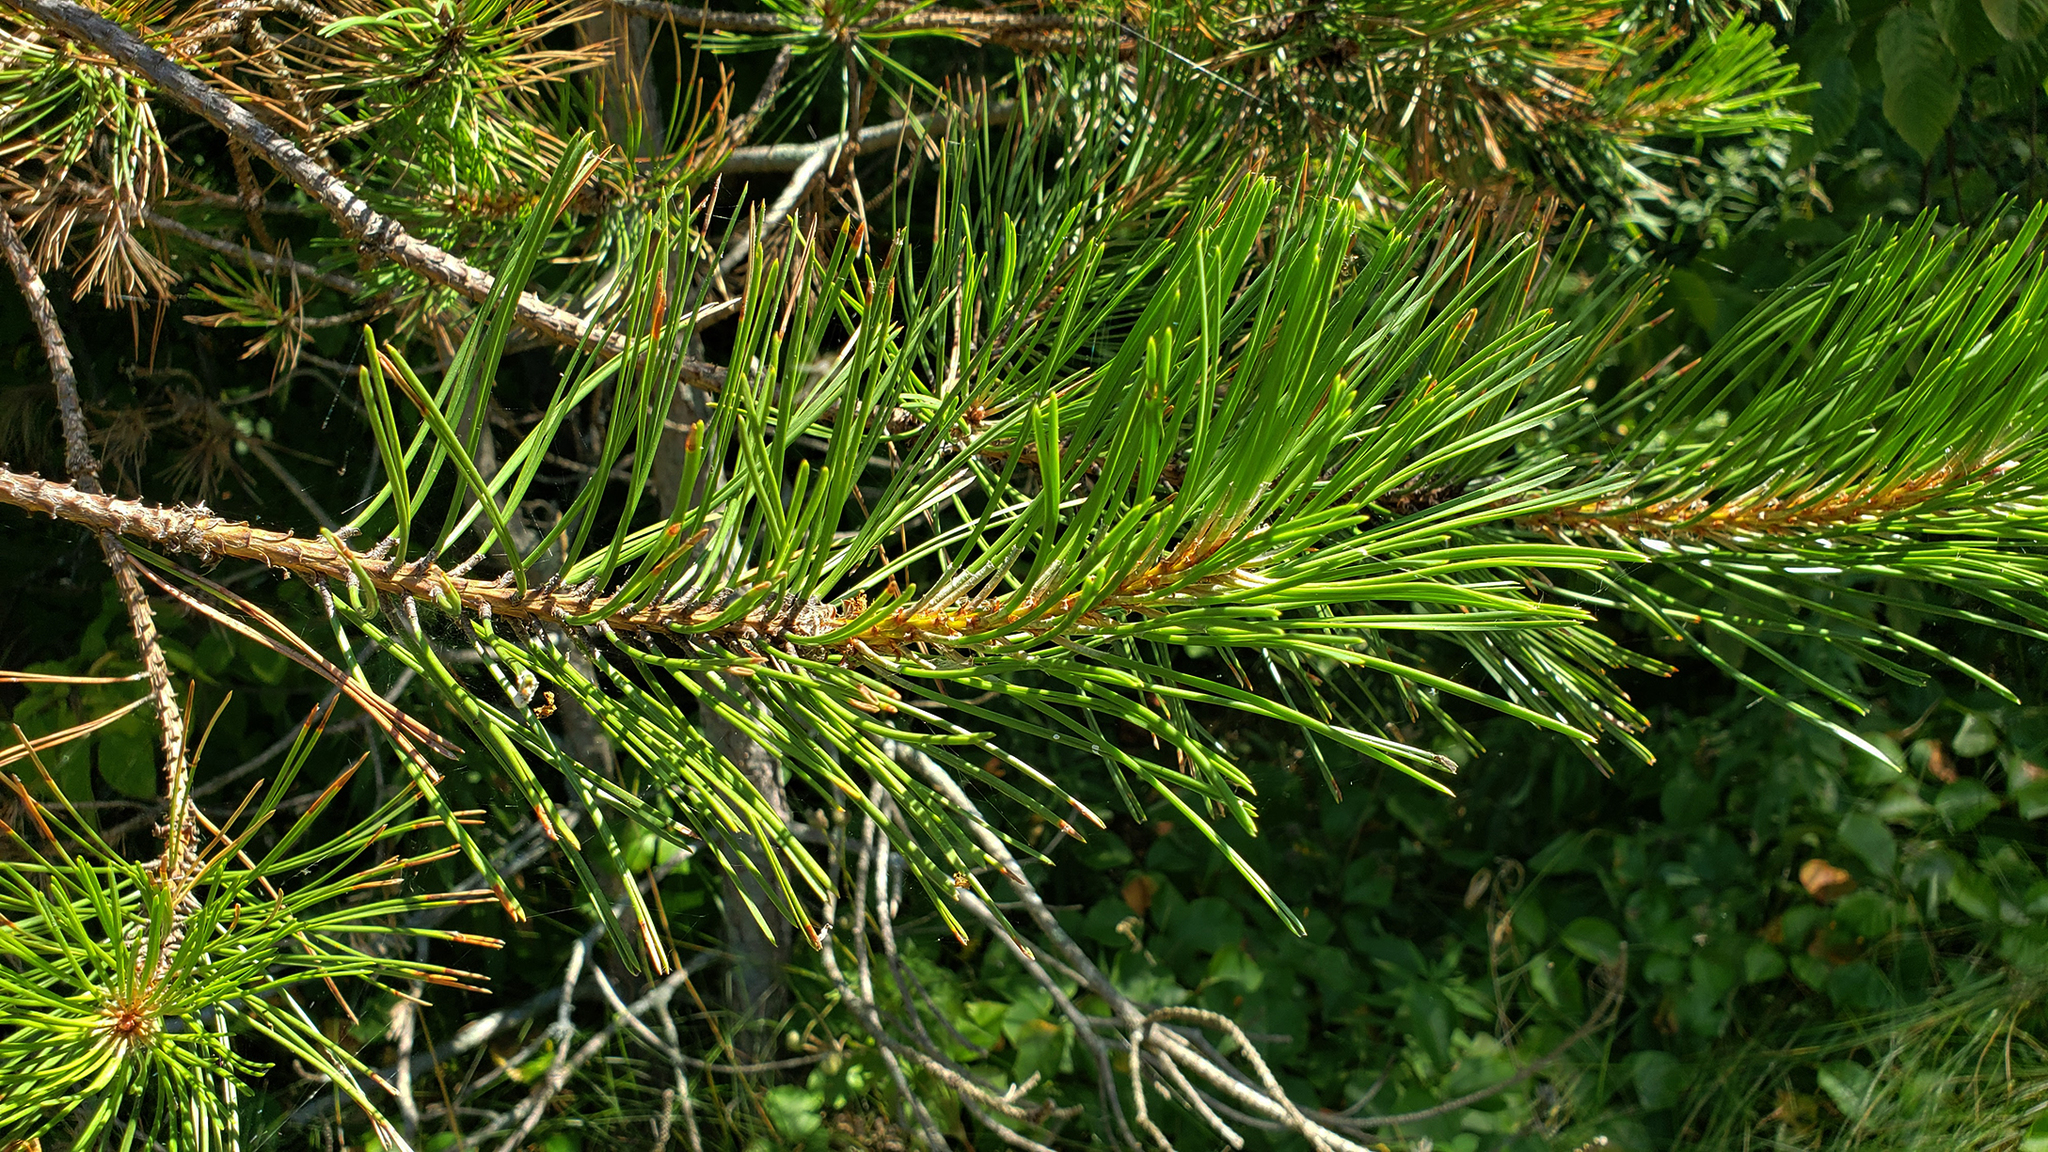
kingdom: Plantae
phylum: Tracheophyta
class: Pinopsida
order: Pinales
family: Pinaceae
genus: Pinus
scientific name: Pinus sylvestris
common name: Scots pine
